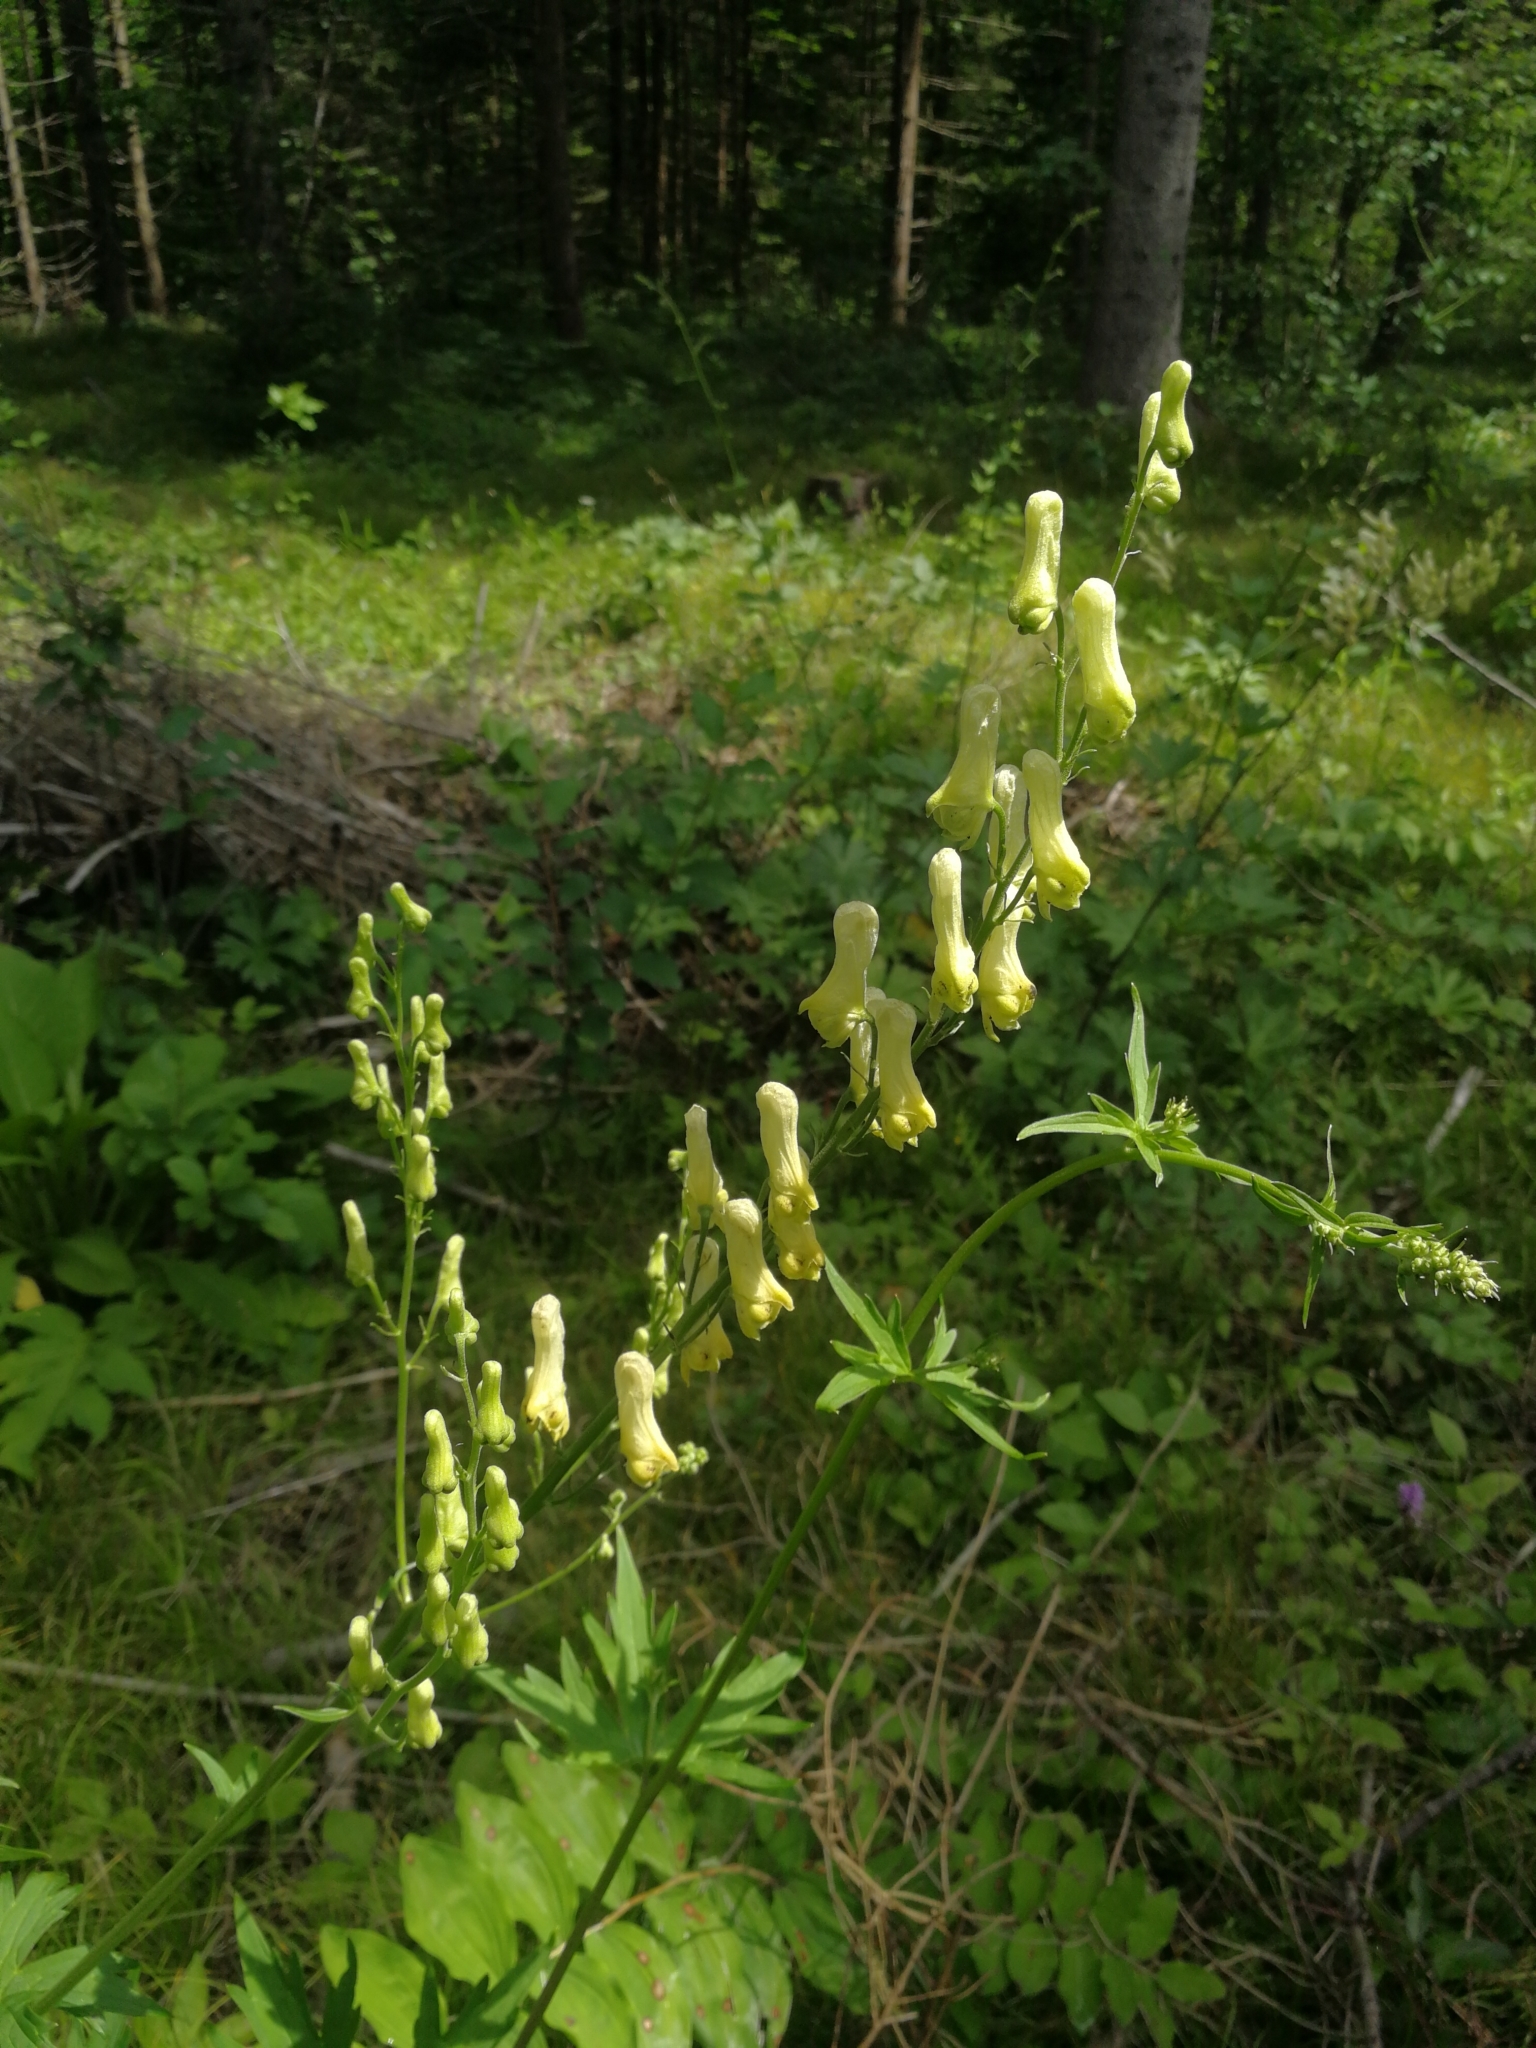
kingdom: Plantae
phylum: Tracheophyta
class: Magnoliopsida
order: Ranunculales
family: Ranunculaceae
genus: Aconitum
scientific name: Aconitum lycoctonum
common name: Wolf's-bane
